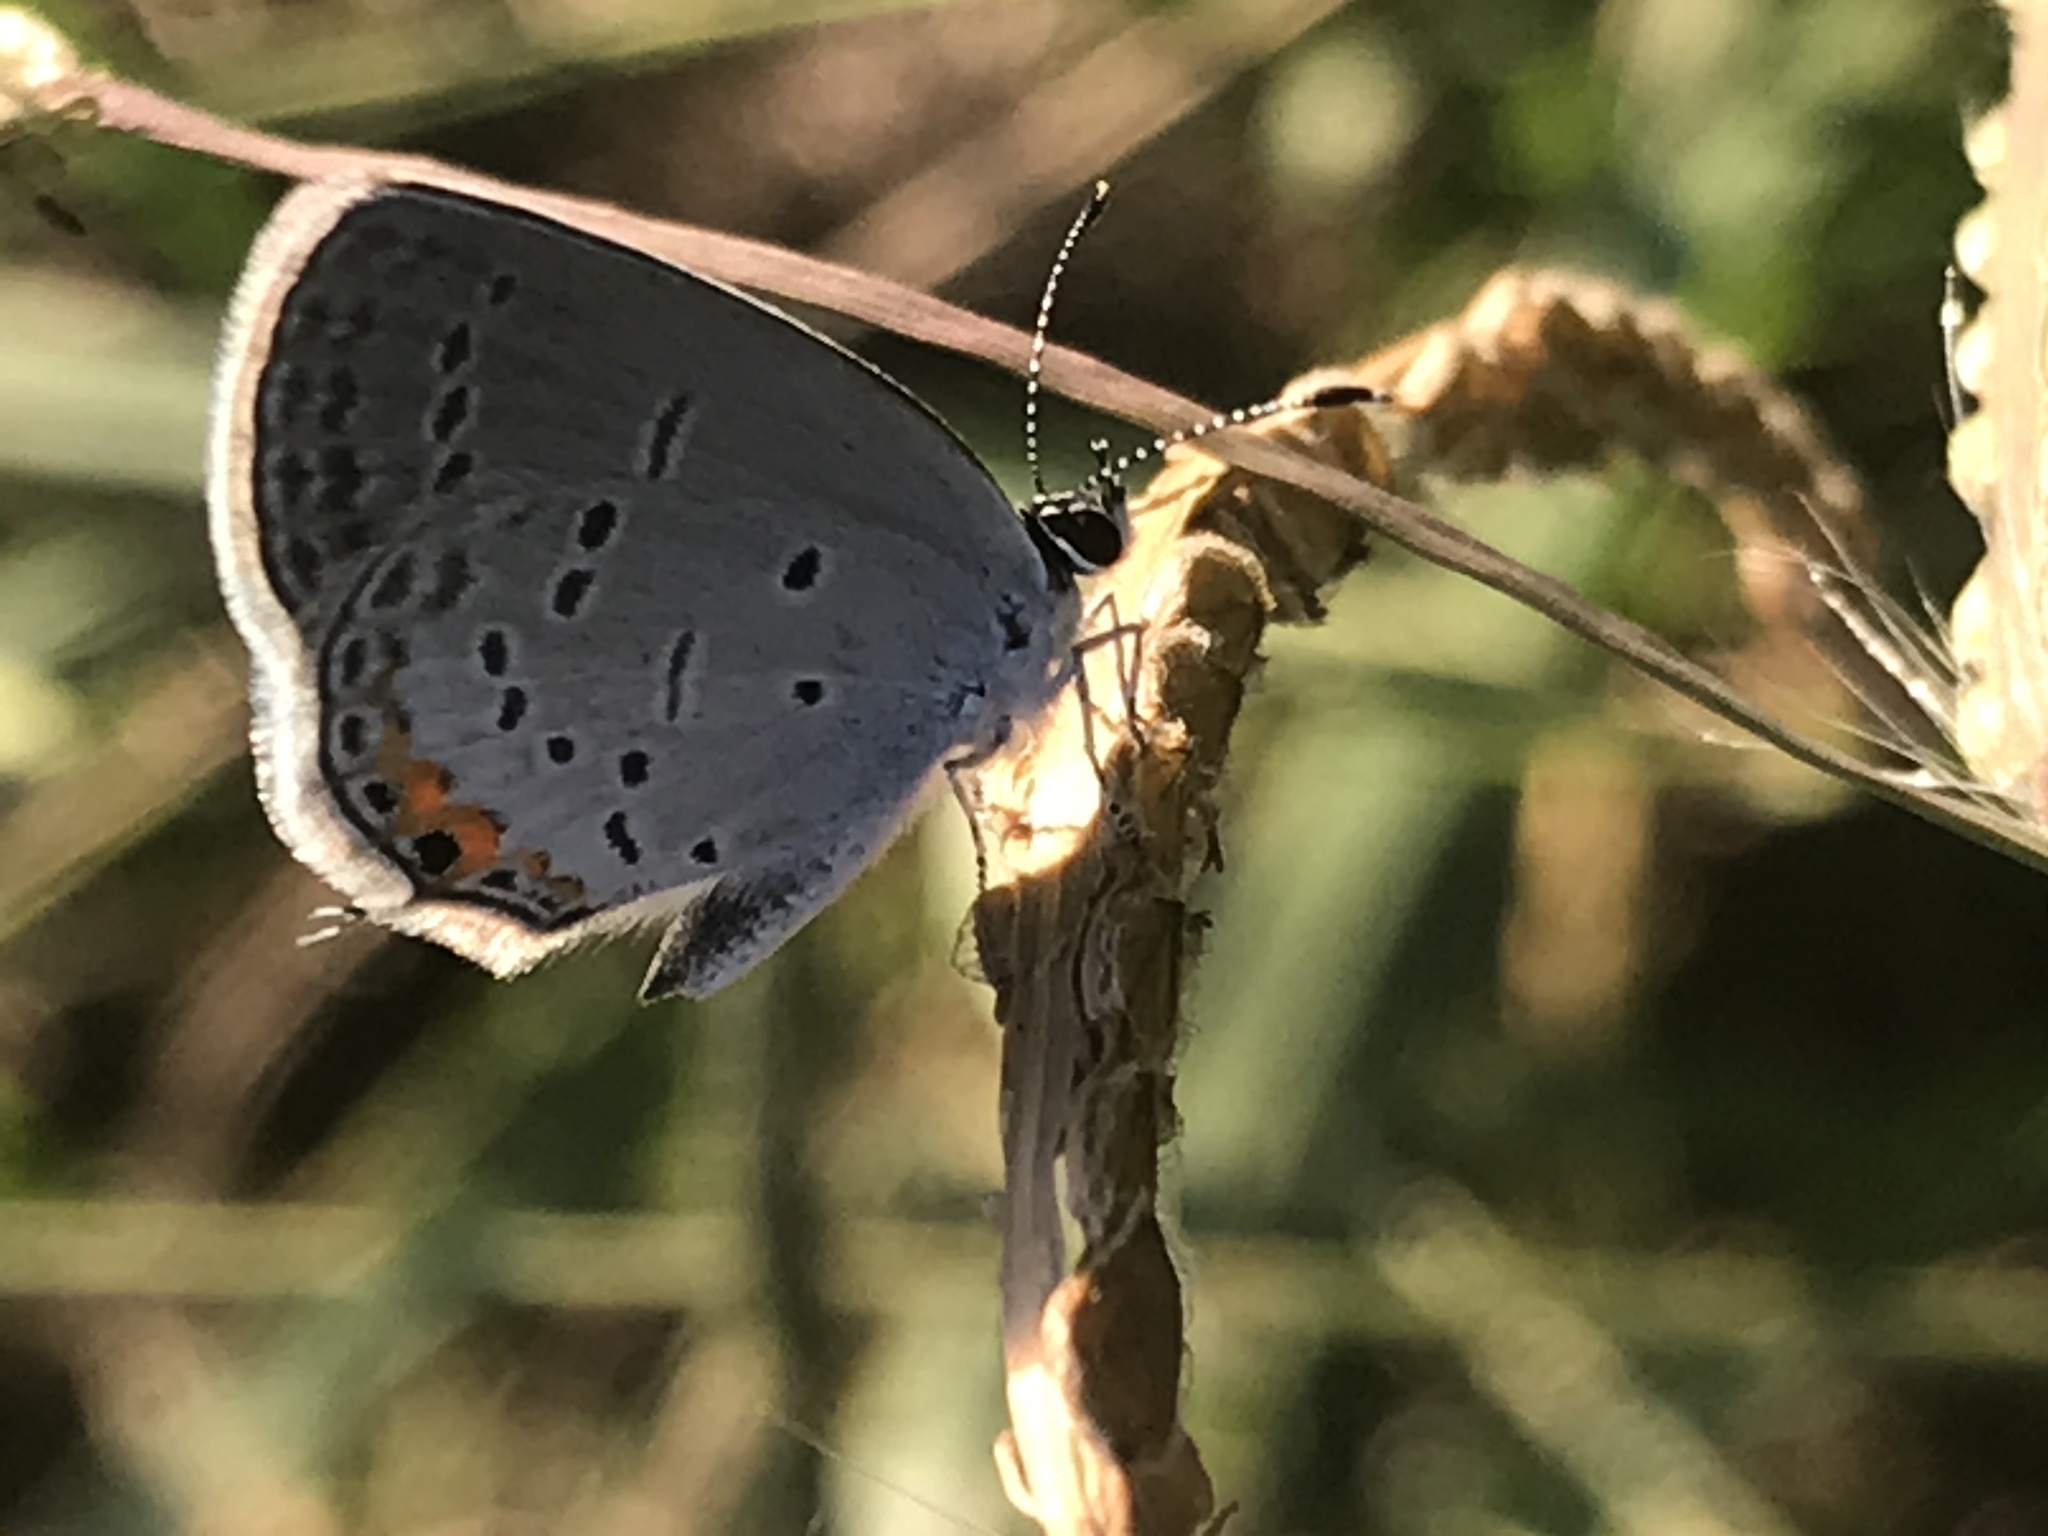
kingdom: Animalia
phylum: Arthropoda
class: Insecta
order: Lepidoptera
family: Lycaenidae
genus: Elkalyce
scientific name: Elkalyce comyntas
